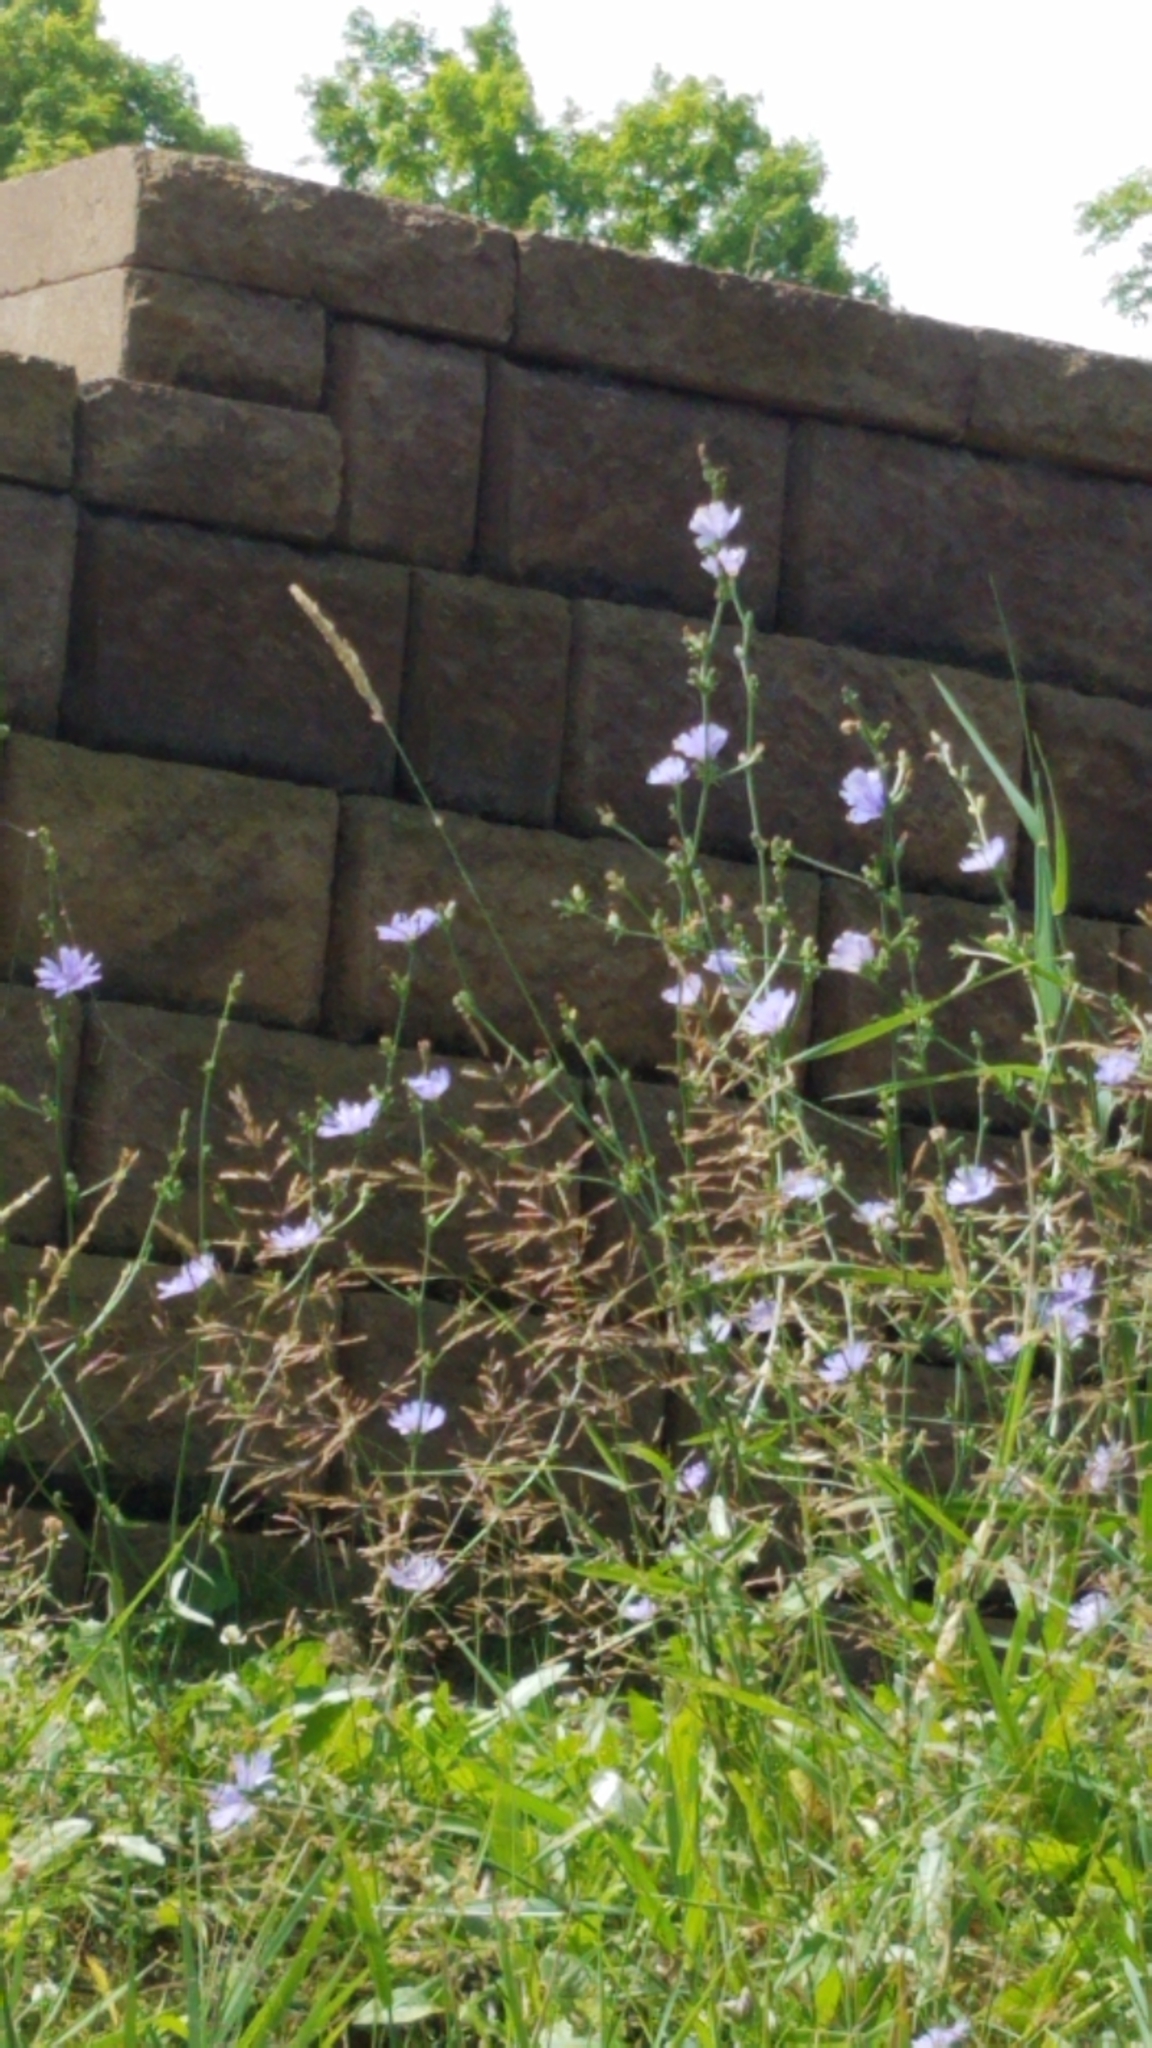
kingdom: Plantae
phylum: Tracheophyta
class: Magnoliopsida
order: Asterales
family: Asteraceae
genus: Cichorium
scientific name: Cichorium intybus
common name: Chicory
